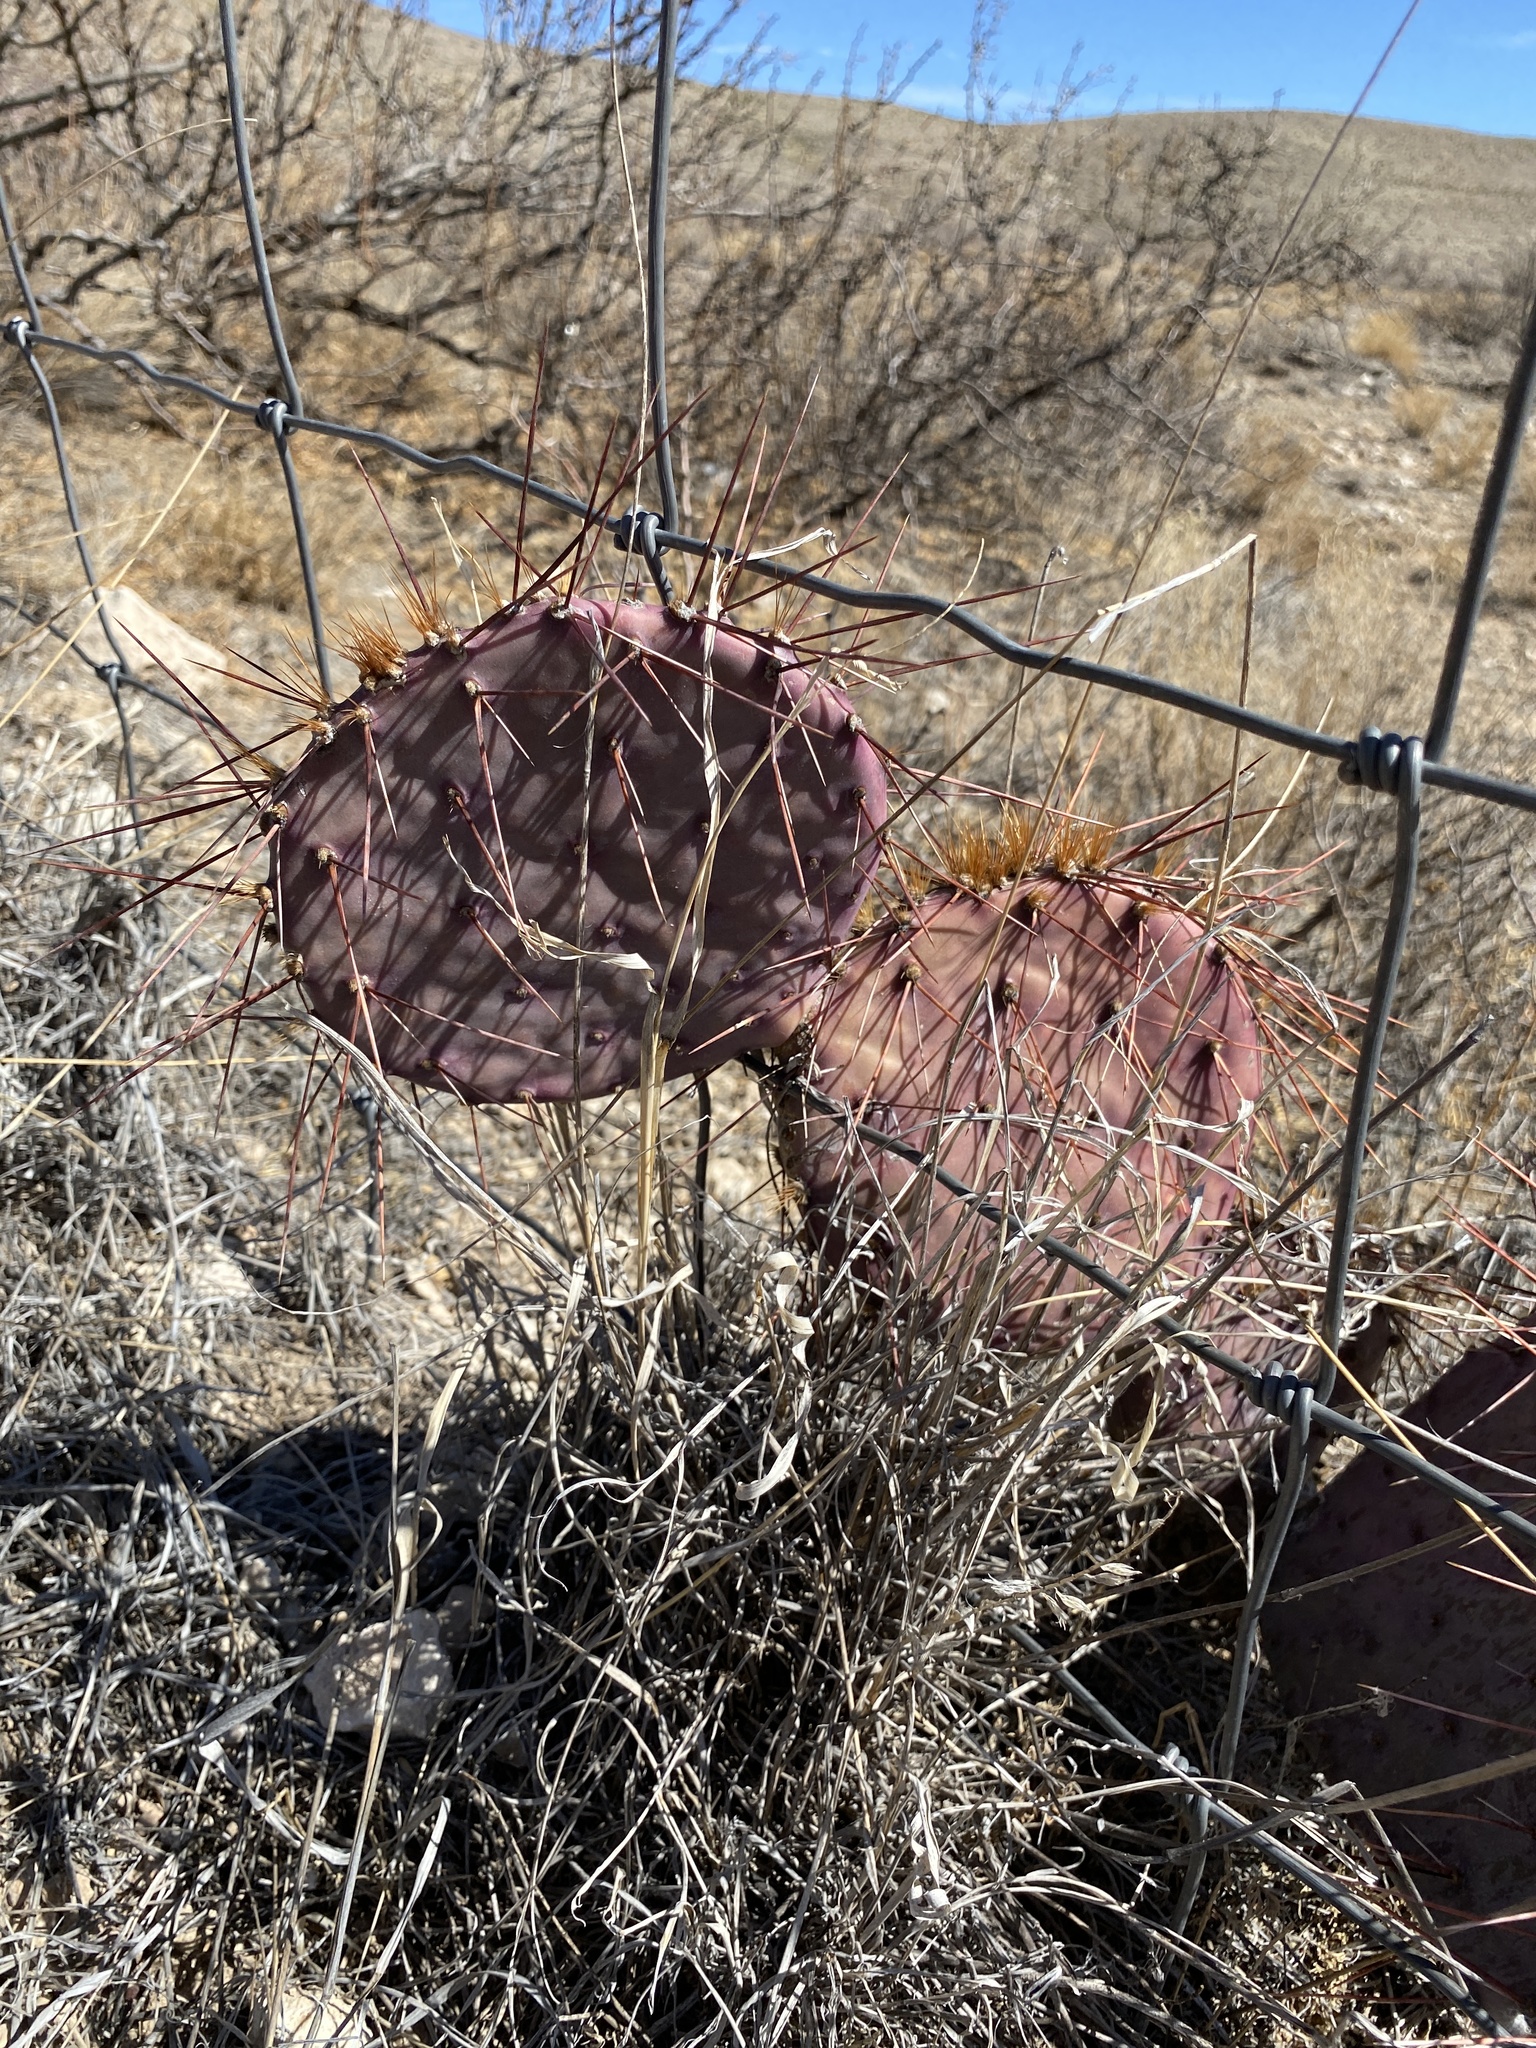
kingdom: Plantae
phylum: Tracheophyta
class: Magnoliopsida
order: Caryophyllales
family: Cactaceae
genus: Opuntia
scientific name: Opuntia
